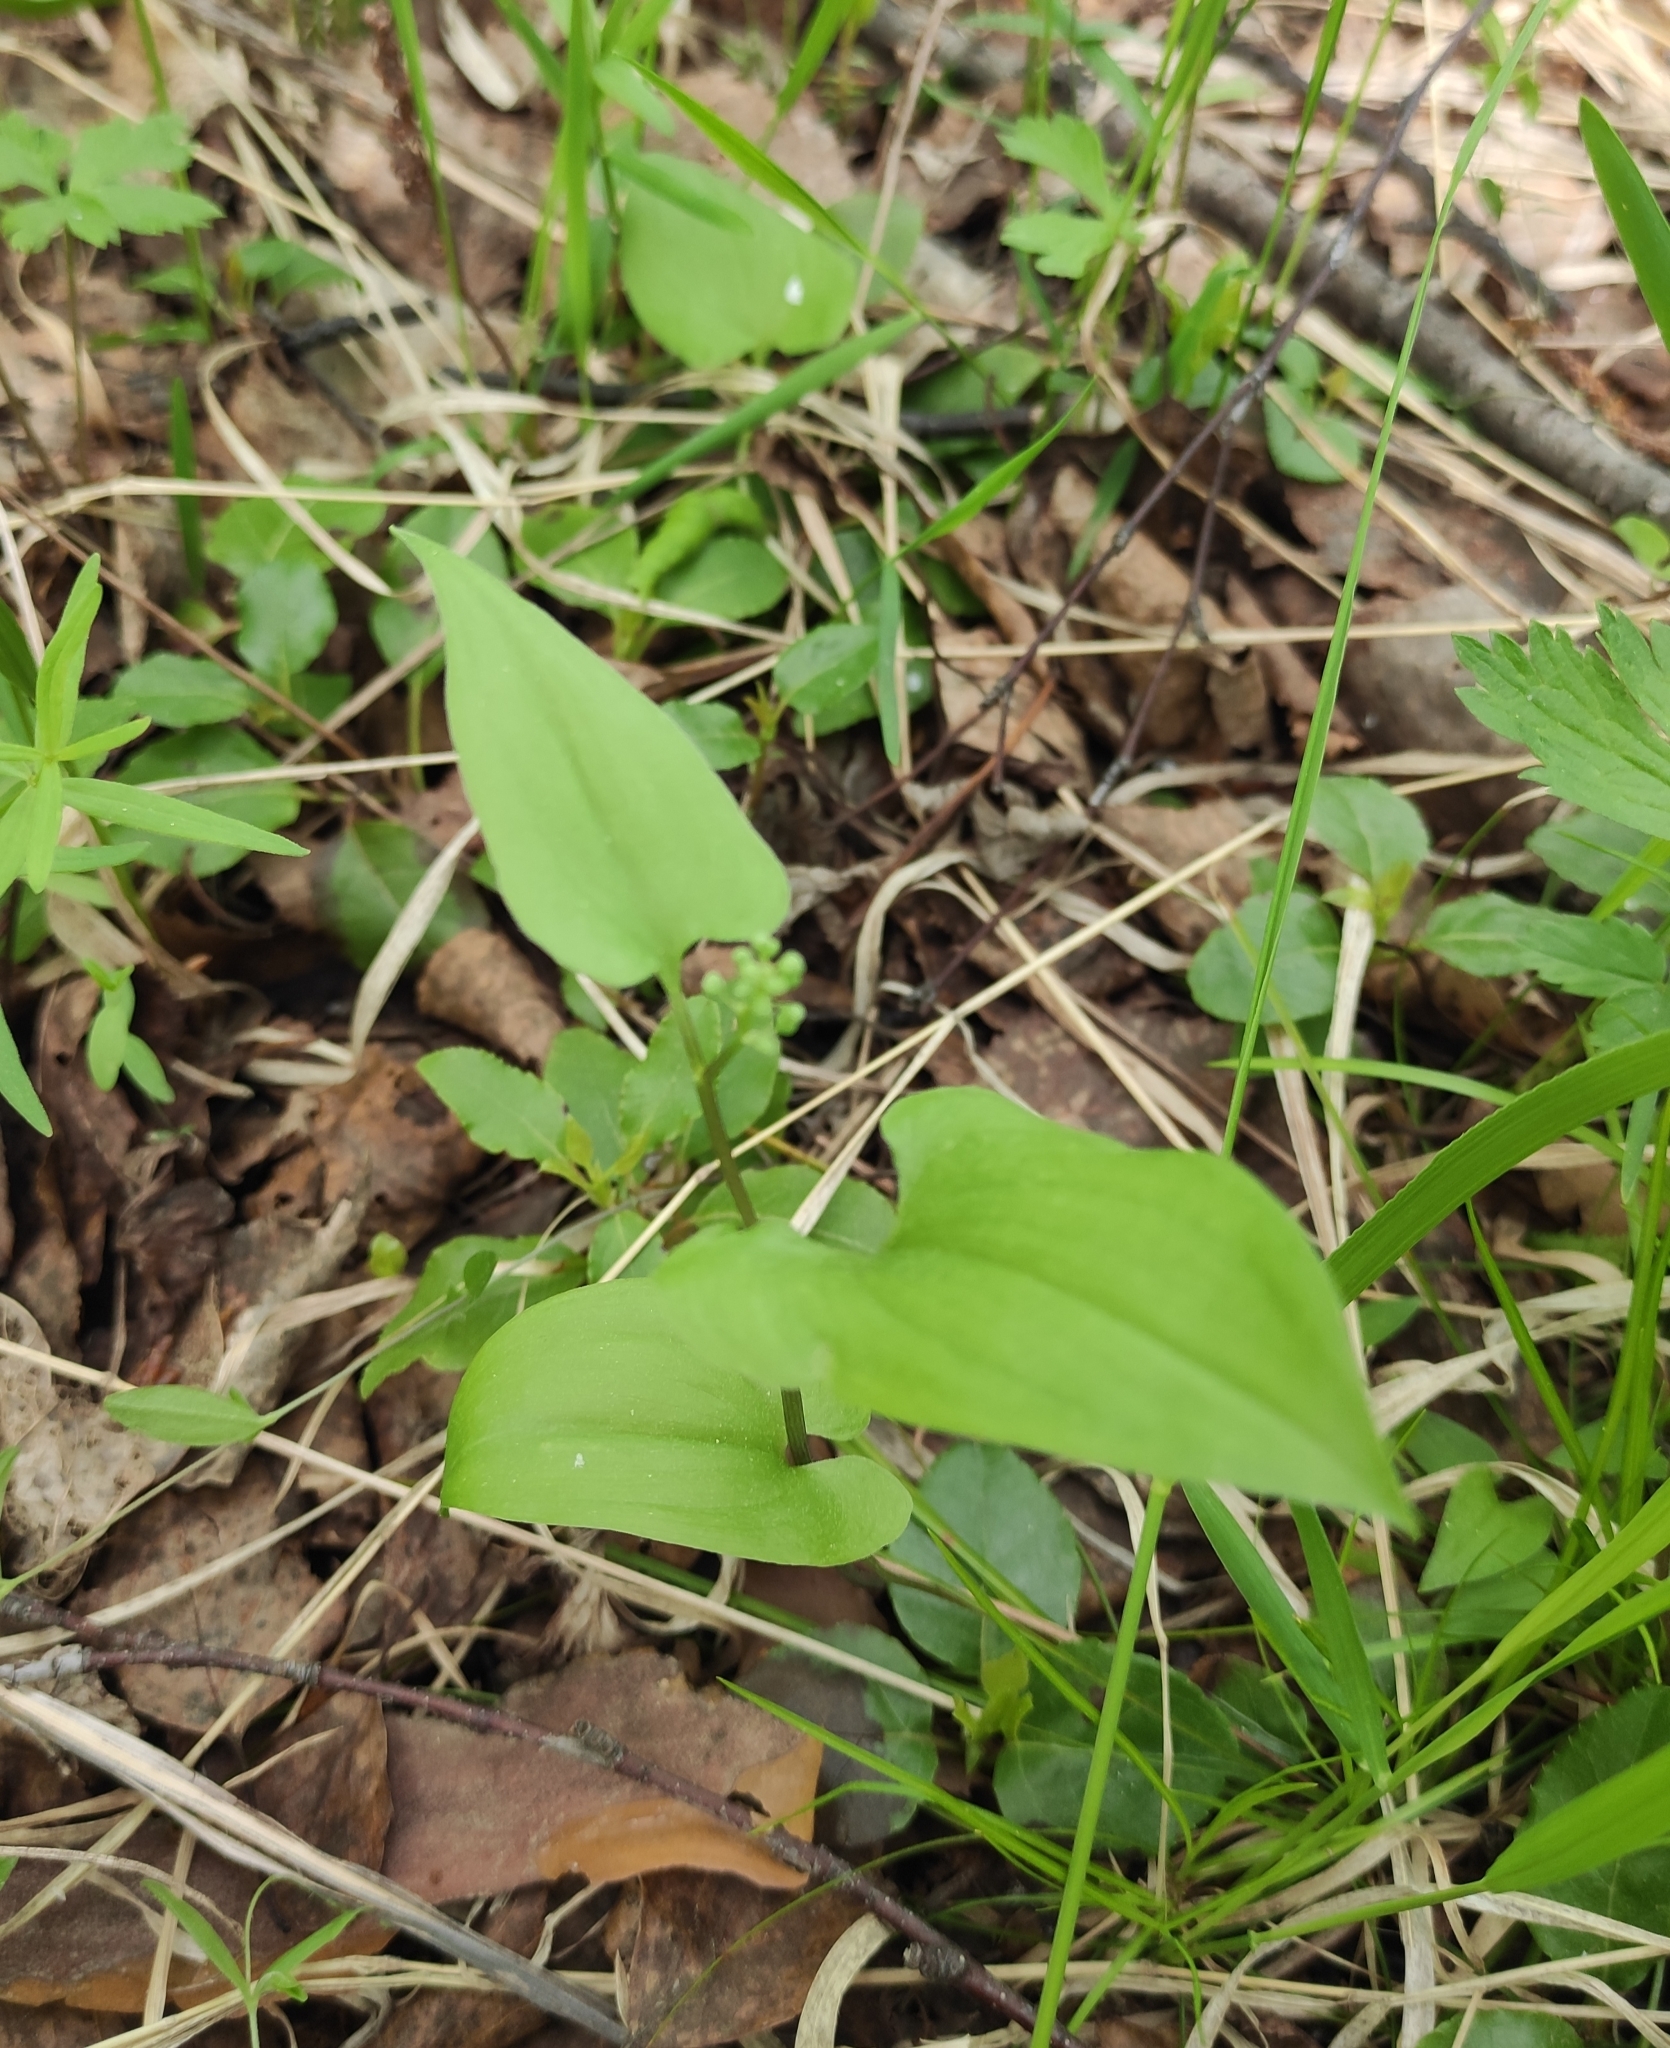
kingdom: Plantae
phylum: Tracheophyta
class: Liliopsida
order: Asparagales
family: Asparagaceae
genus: Maianthemum
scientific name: Maianthemum bifolium
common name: May lily
